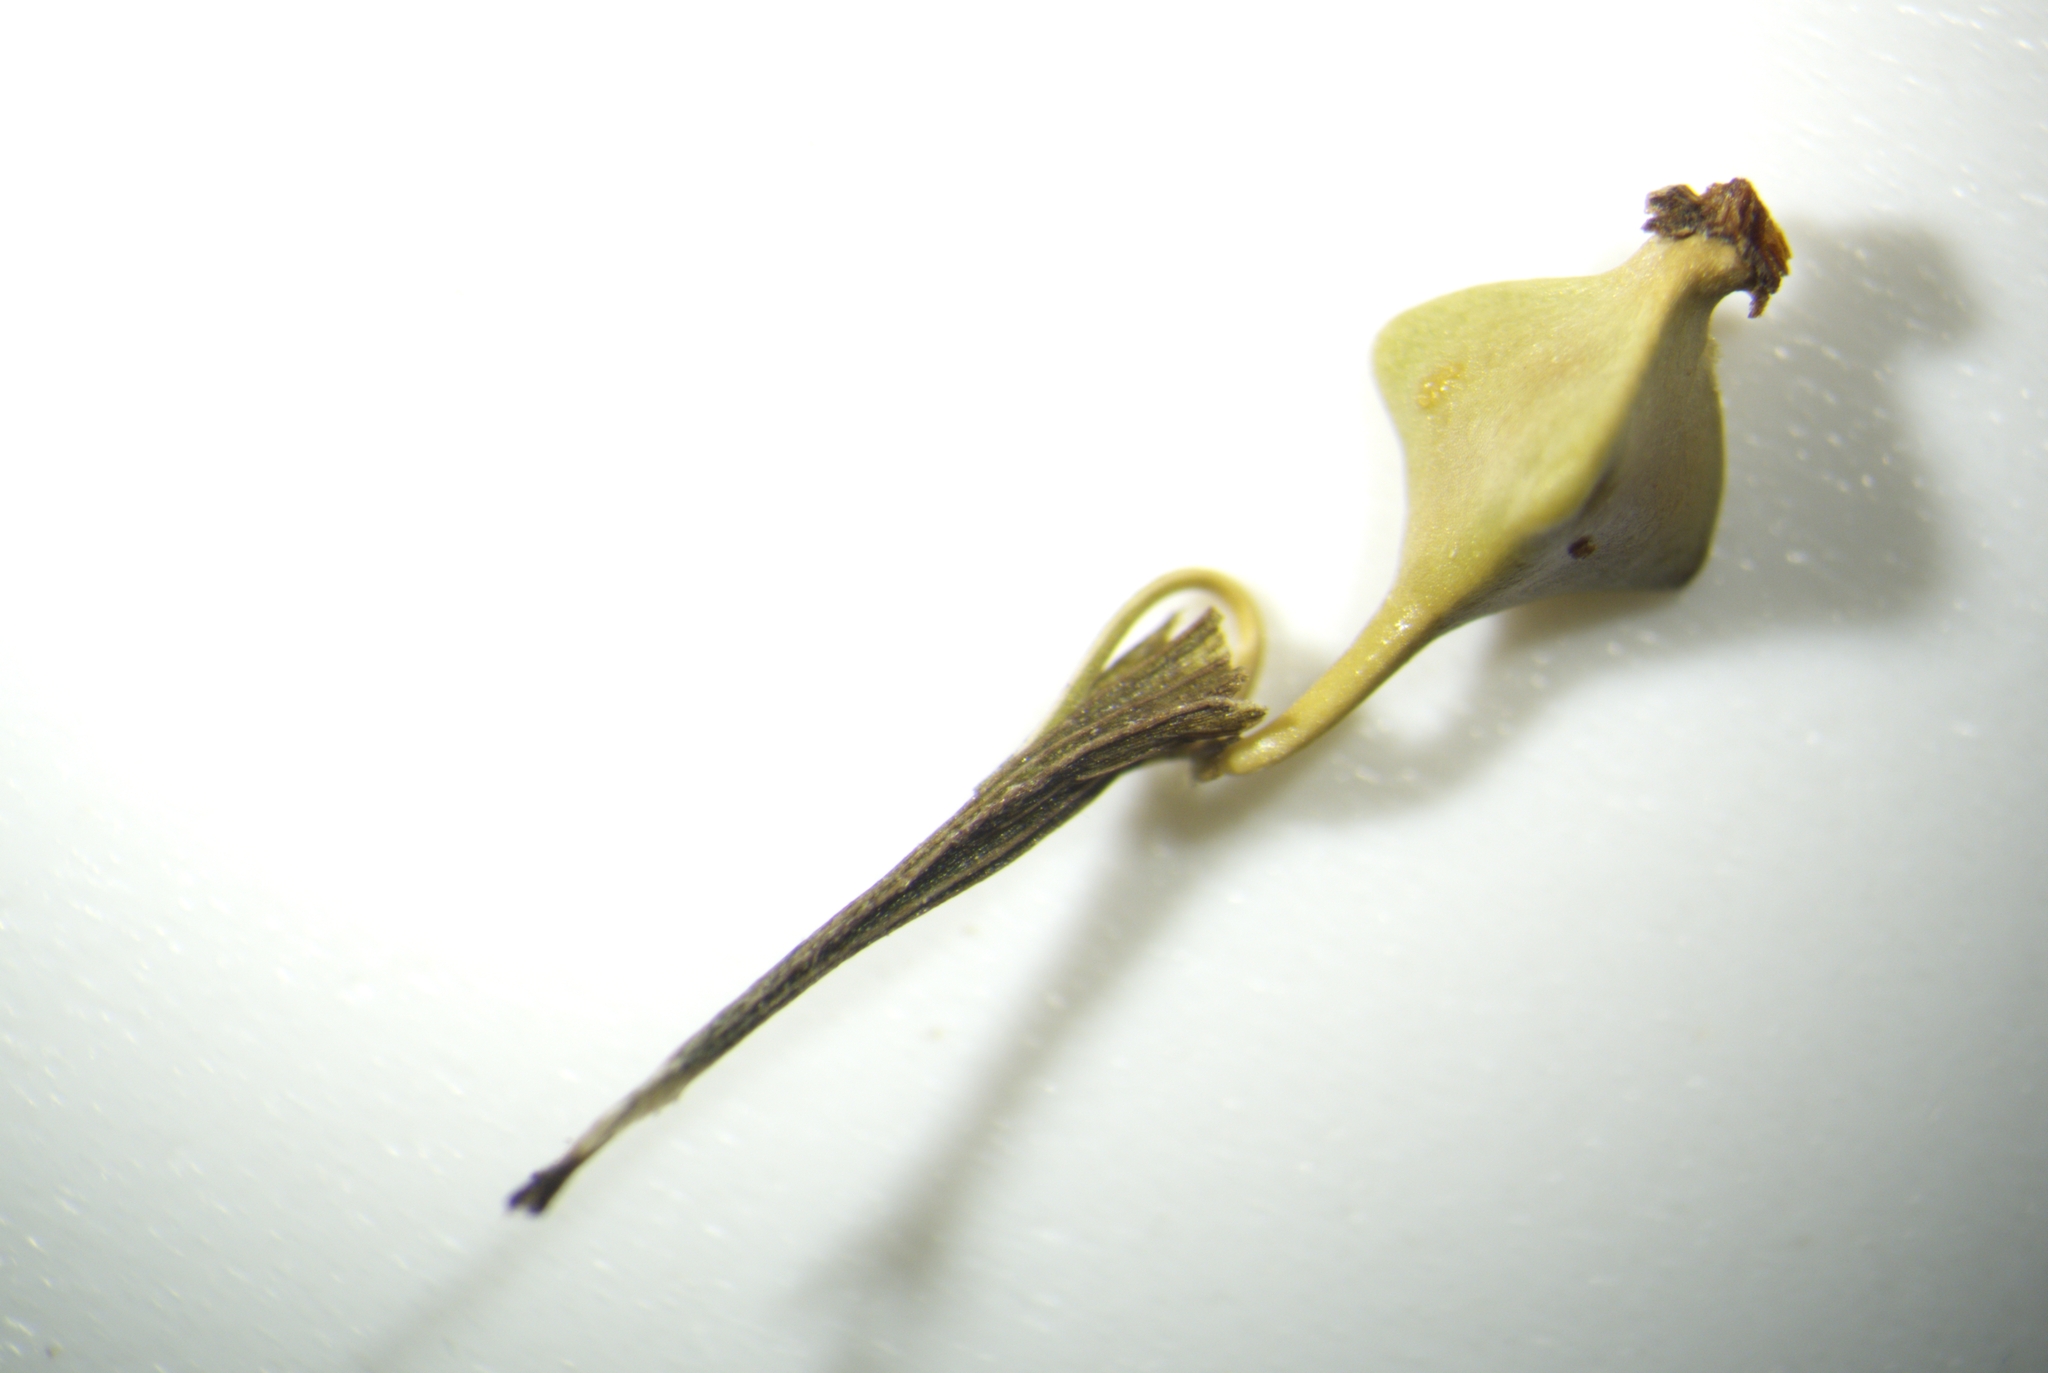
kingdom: Plantae
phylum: Tracheophyta
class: Liliopsida
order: Poales
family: Cyperaceae
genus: Carex
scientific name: Carex lupuliformis
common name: False hop sedge
